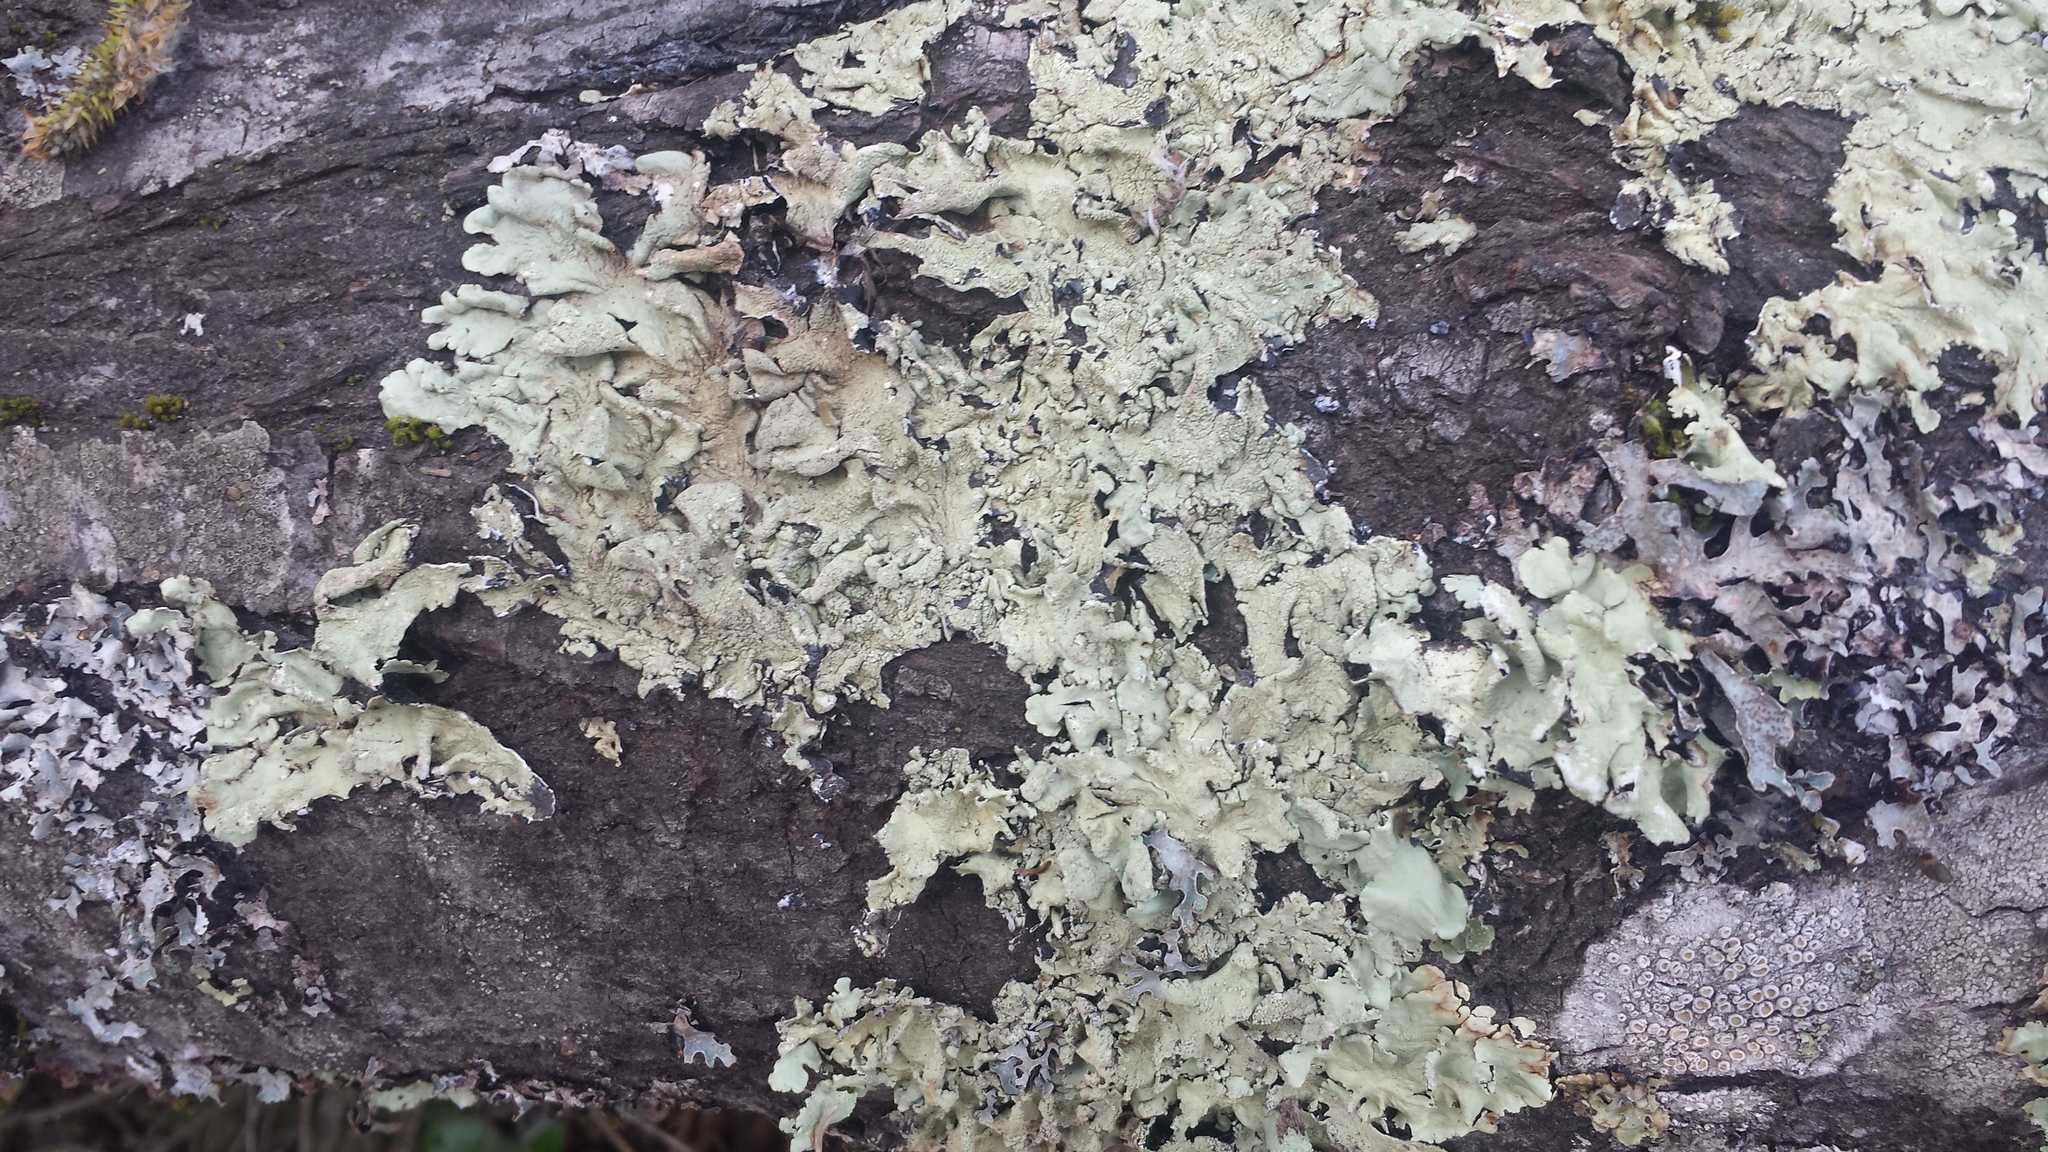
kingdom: Fungi
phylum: Ascomycota
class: Lecanoromycetes
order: Lecanorales
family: Parmeliaceae
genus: Flavoparmelia
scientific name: Flavoparmelia caperata
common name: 40-mile per hour lichen
